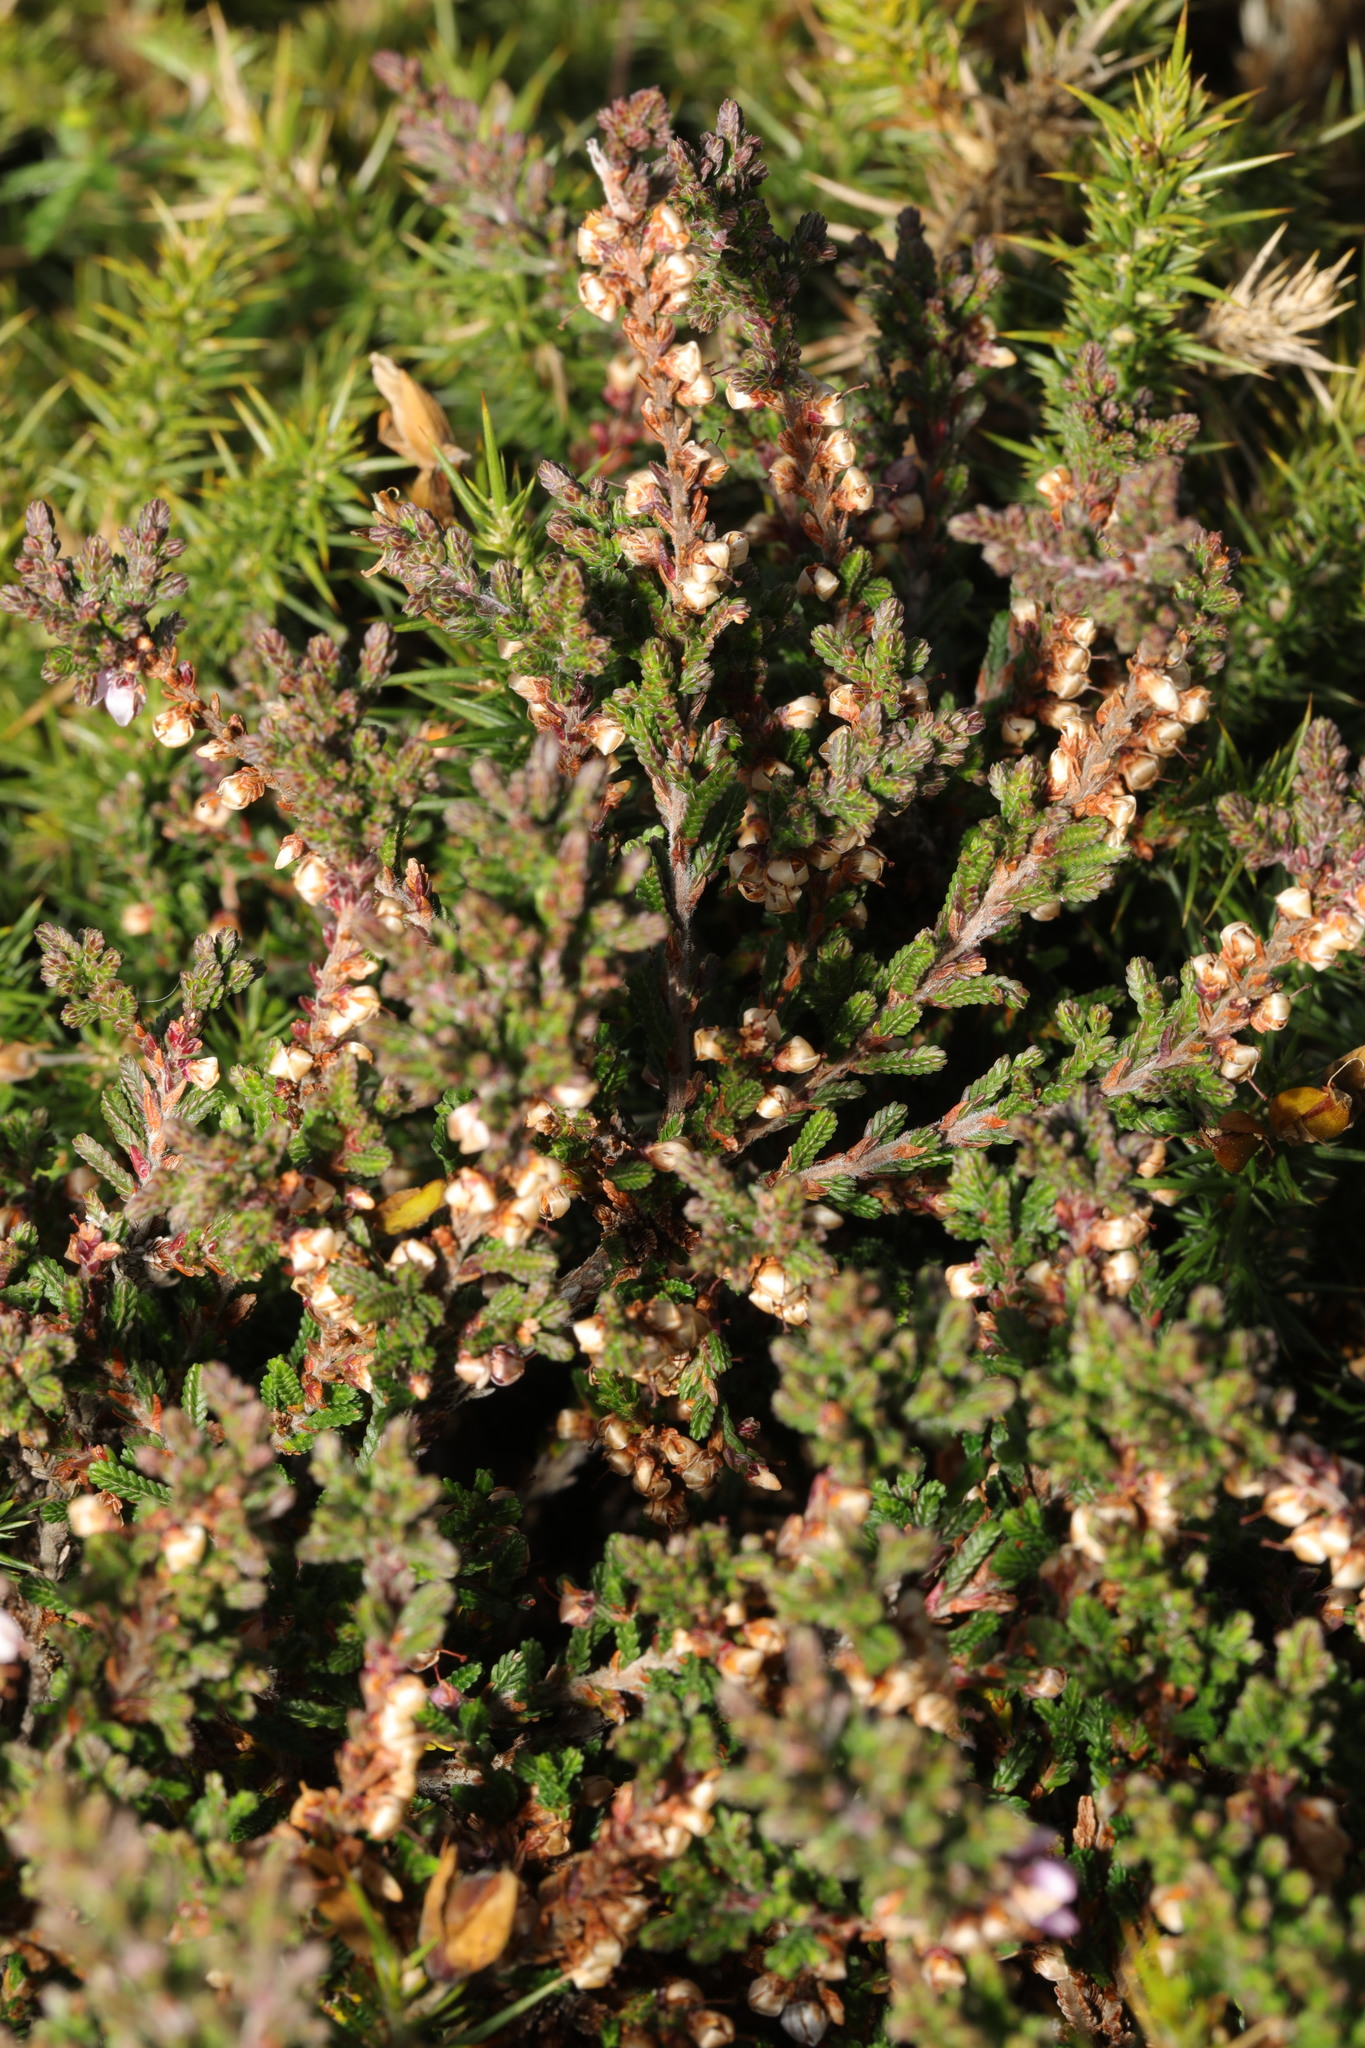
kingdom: Plantae
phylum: Tracheophyta
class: Magnoliopsida
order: Ericales
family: Ericaceae
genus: Calluna
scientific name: Calluna vulgaris
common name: Heather
